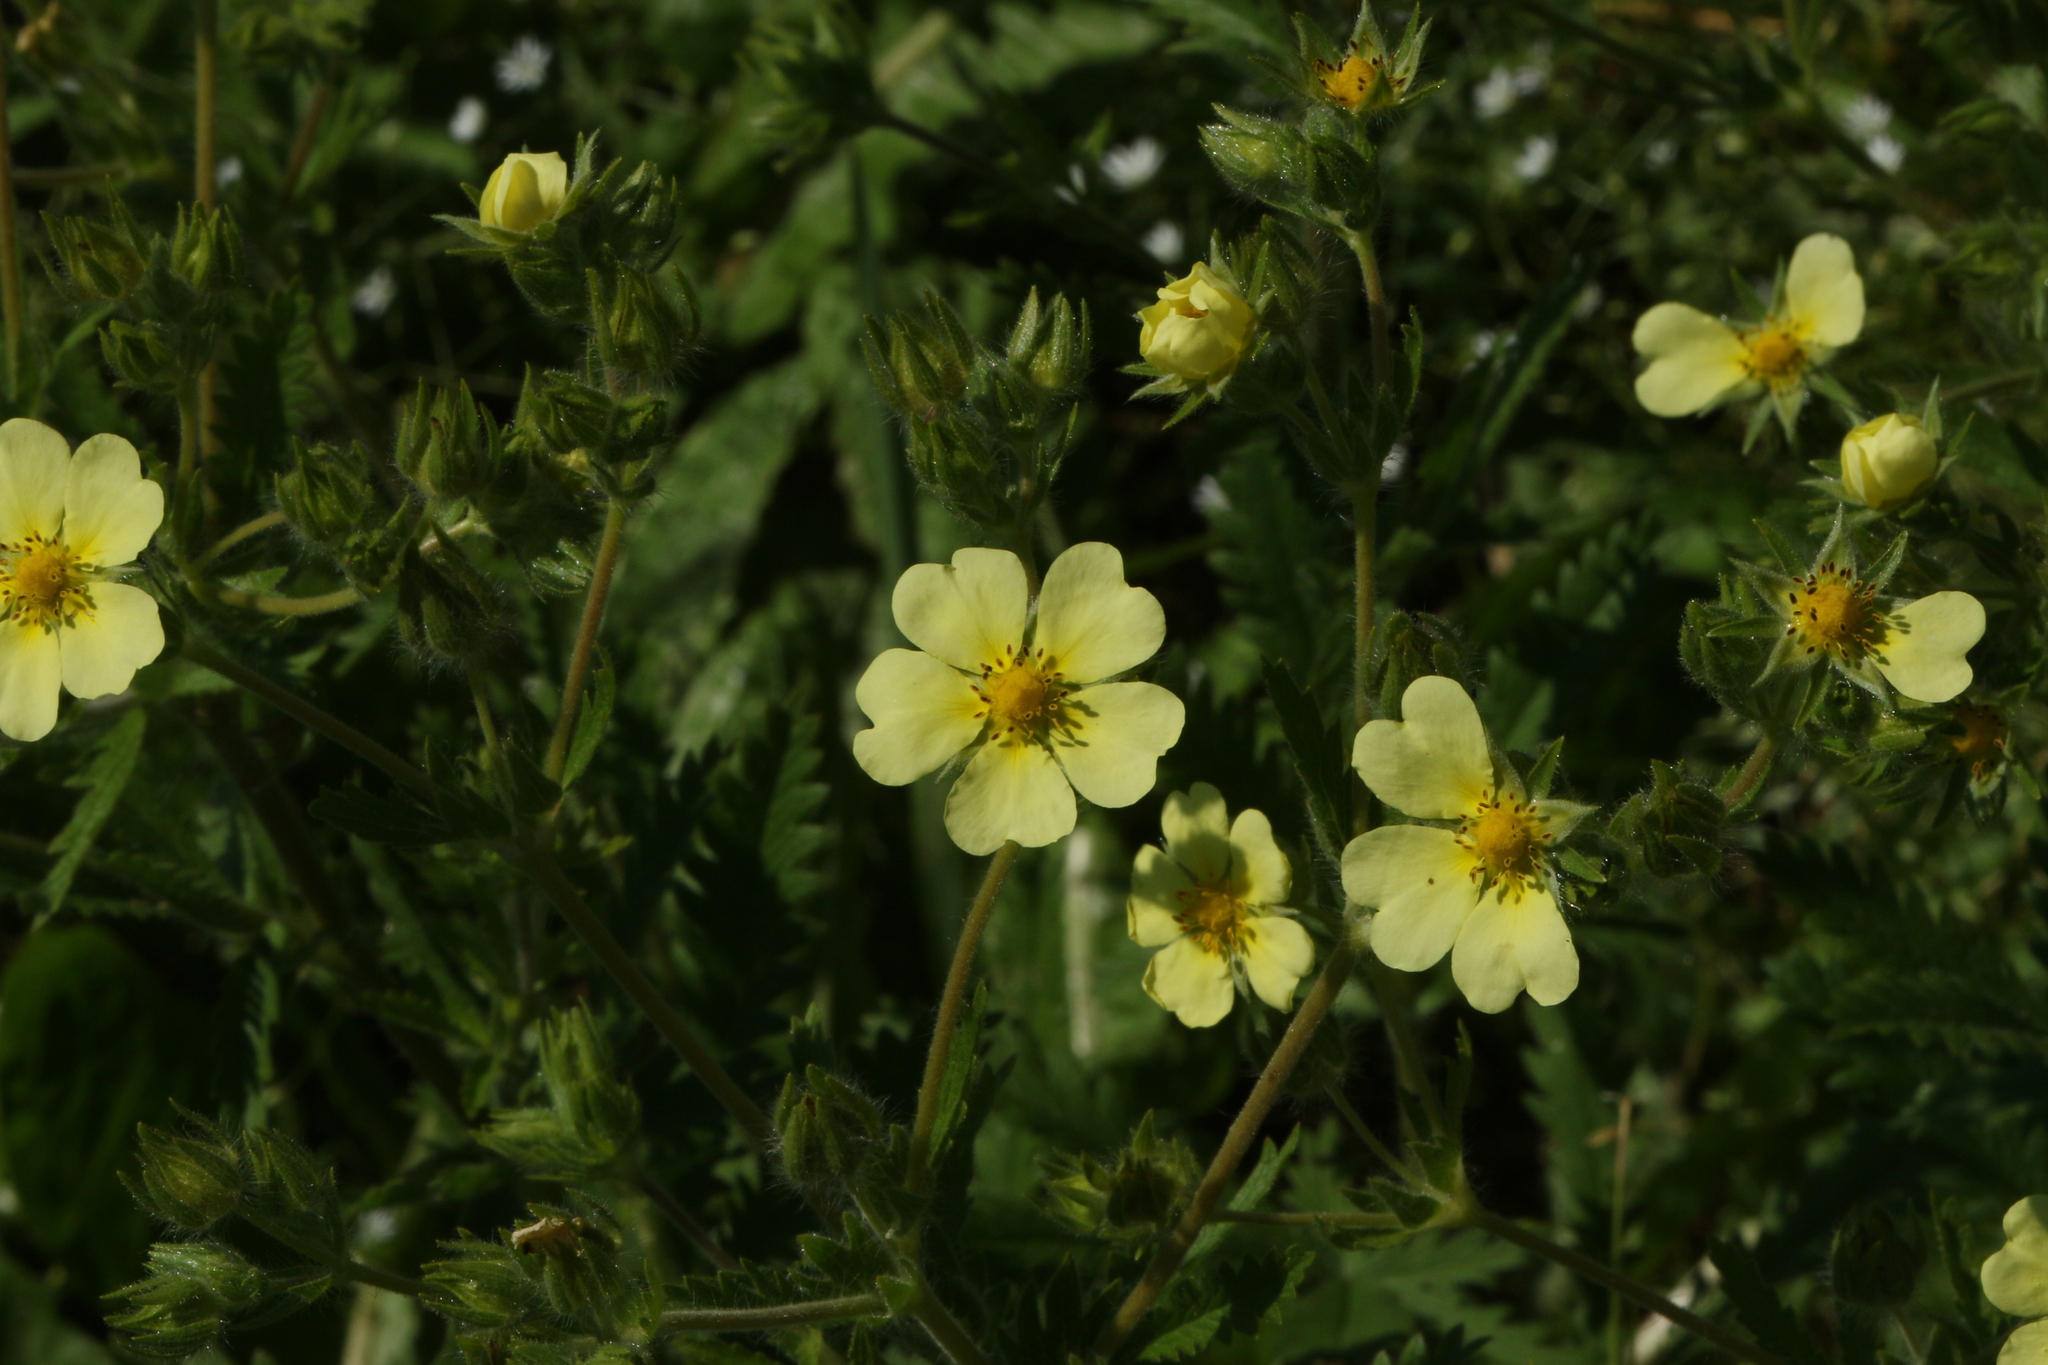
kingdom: Plantae
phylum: Tracheophyta
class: Magnoliopsida
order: Rosales
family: Rosaceae
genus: Potentilla
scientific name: Potentilla recta
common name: Sulphur cinquefoil
